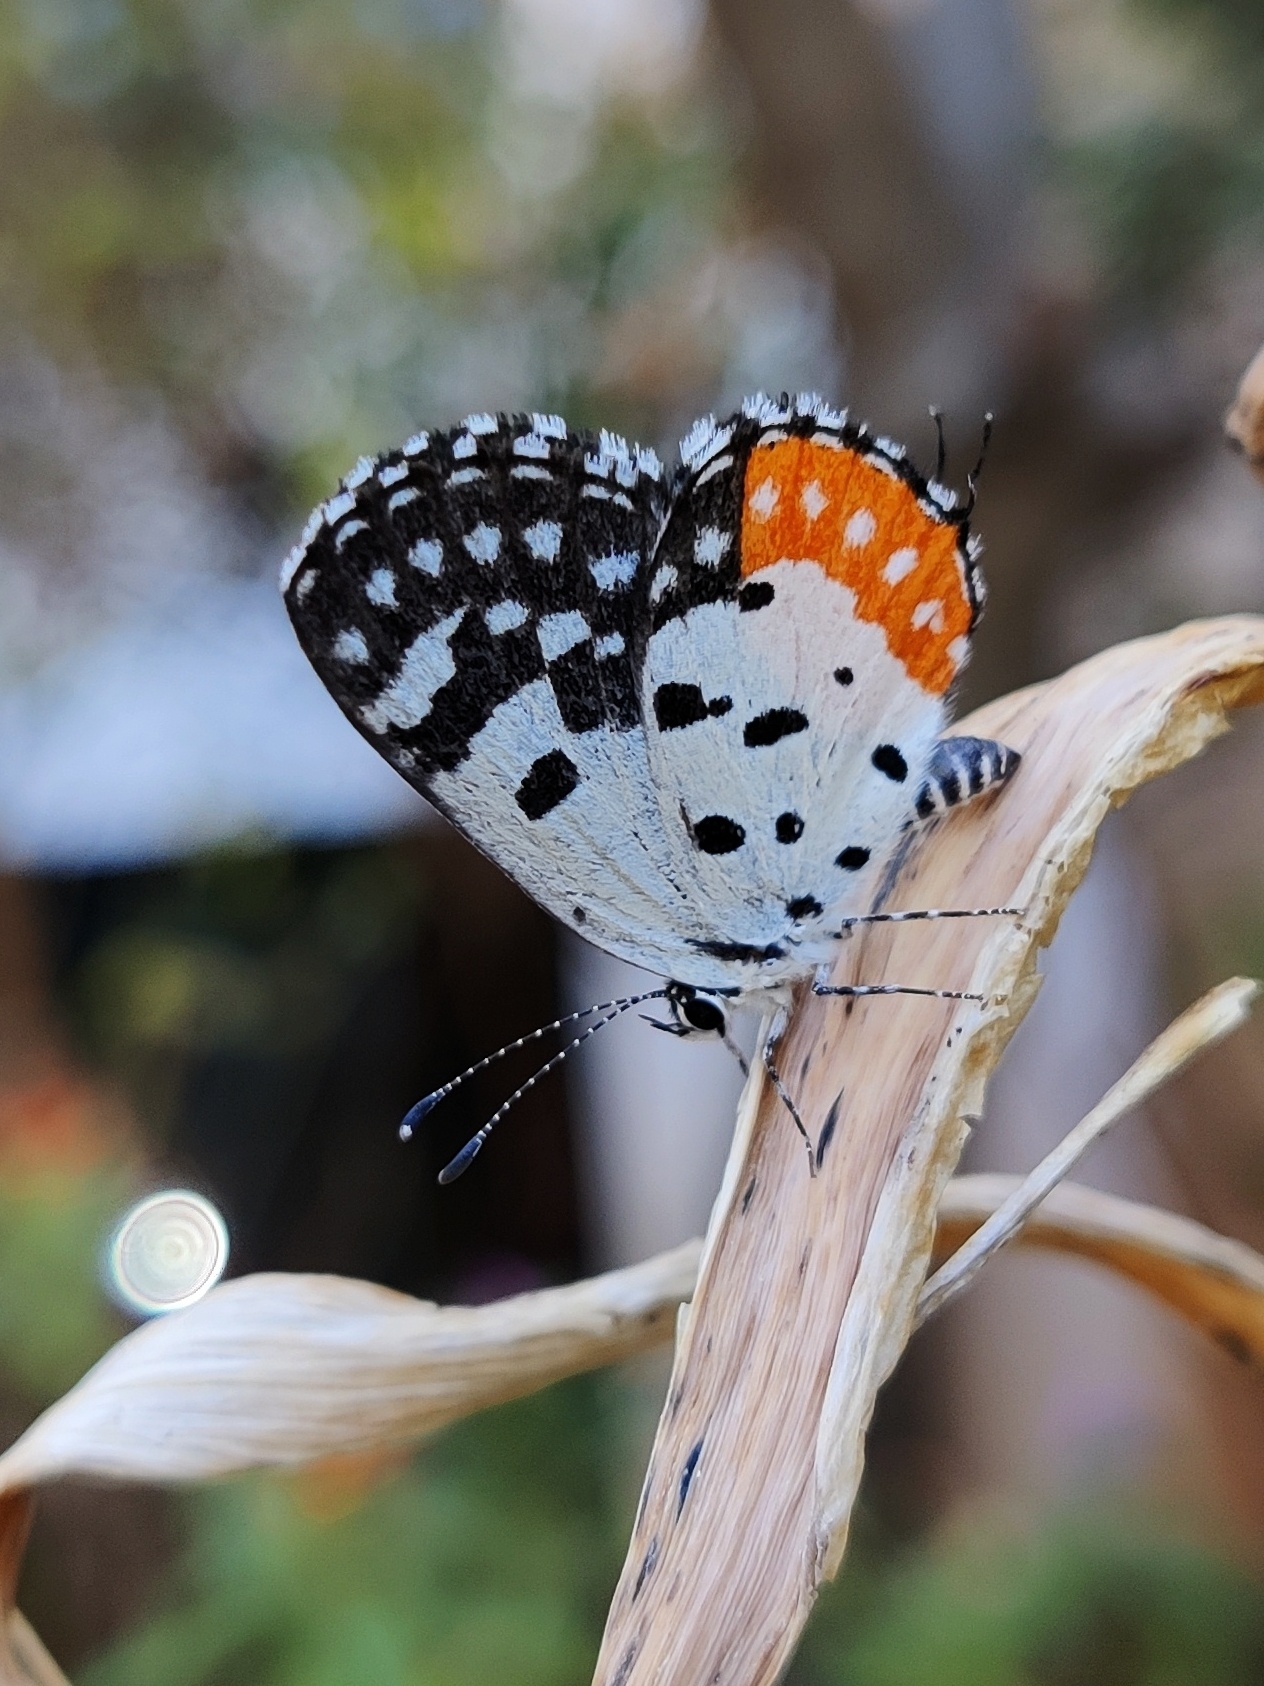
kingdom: Animalia
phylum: Arthropoda
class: Insecta
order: Lepidoptera
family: Lycaenidae
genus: Talicada
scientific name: Talicada nyseus
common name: Red pierrot
